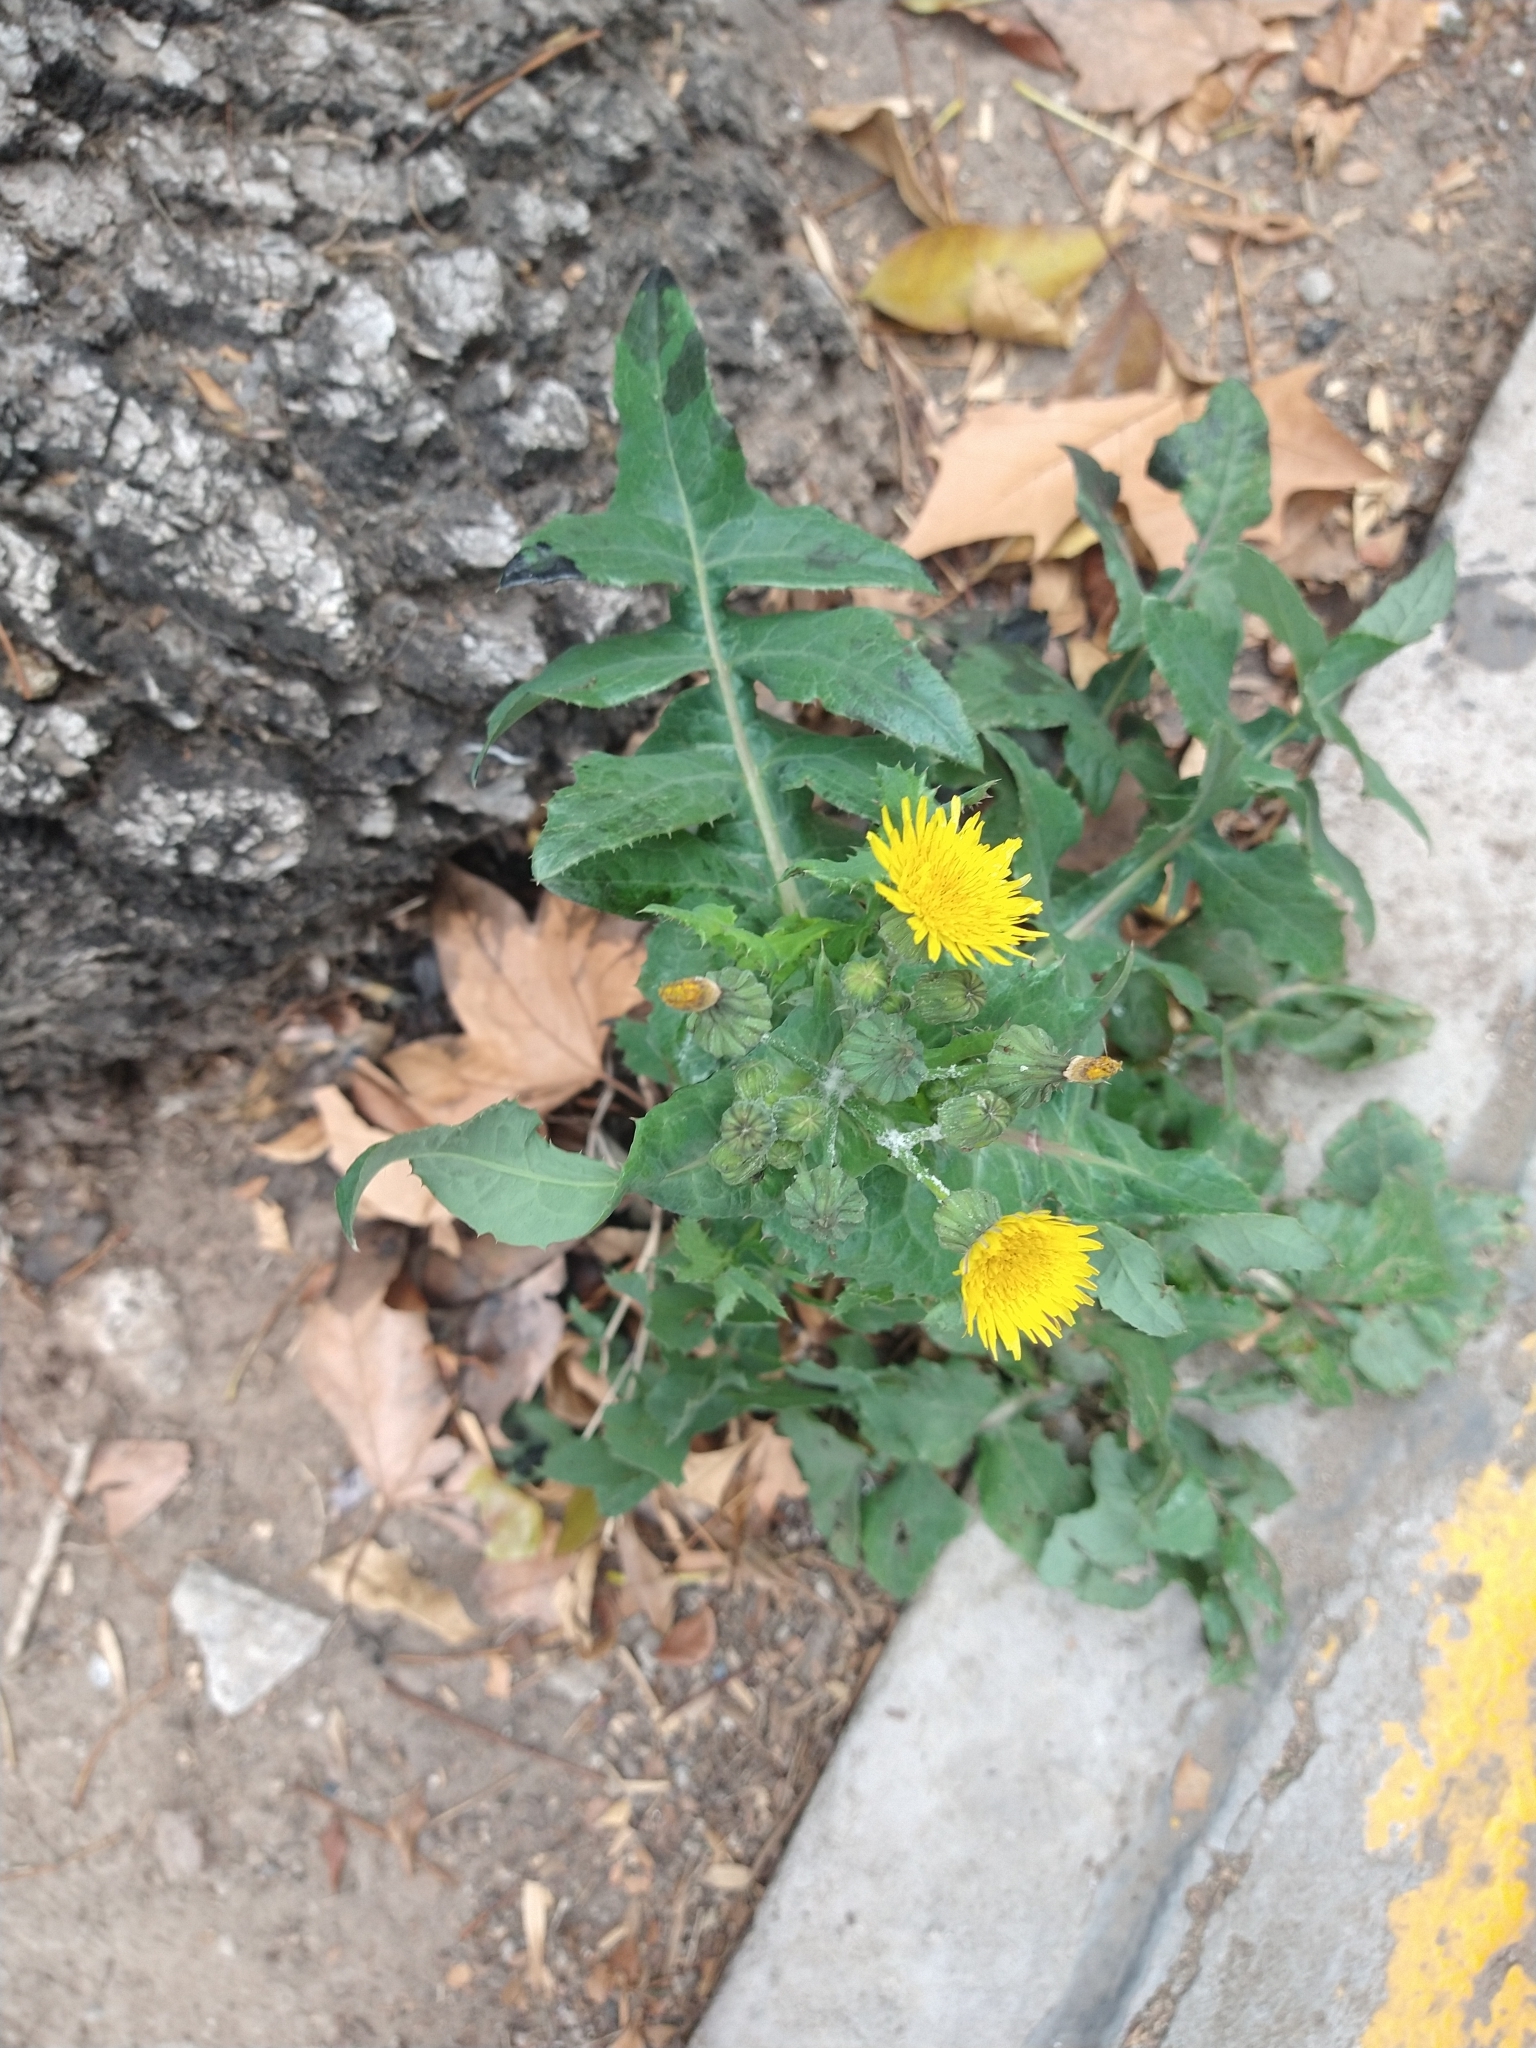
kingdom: Plantae
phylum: Tracheophyta
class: Magnoliopsida
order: Asterales
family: Asteraceae
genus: Sonchus
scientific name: Sonchus oleraceus
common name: Common sowthistle
